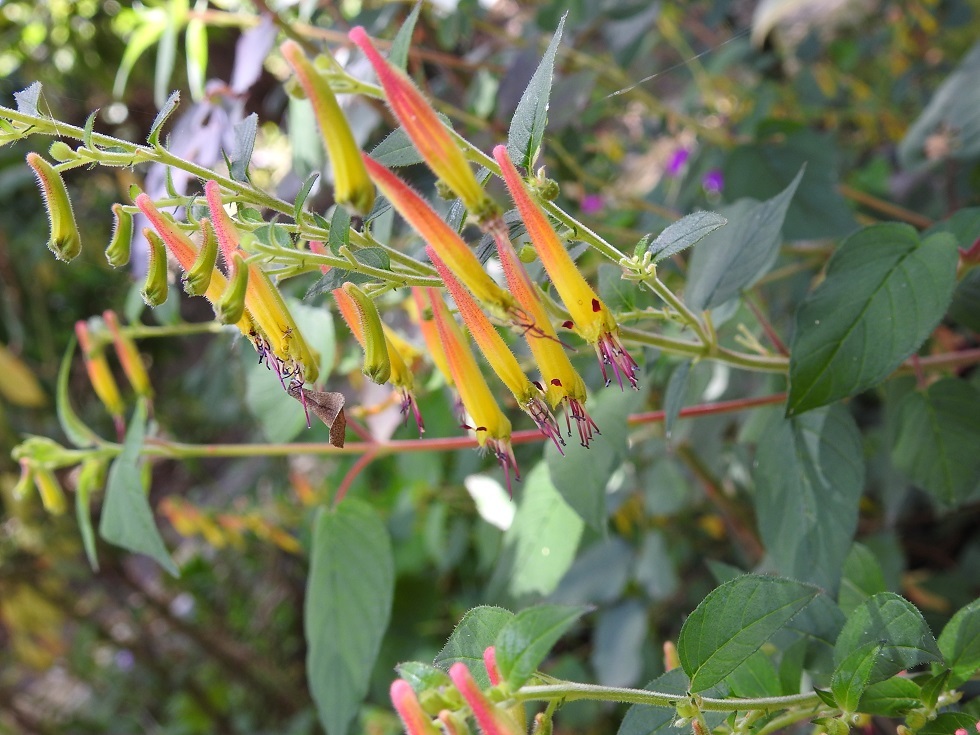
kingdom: Plantae
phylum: Tracheophyta
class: Magnoliopsida
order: Myrtales
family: Lythraceae
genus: Cuphea
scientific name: Cuphea cyanea
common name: Black-eyed cuphea
